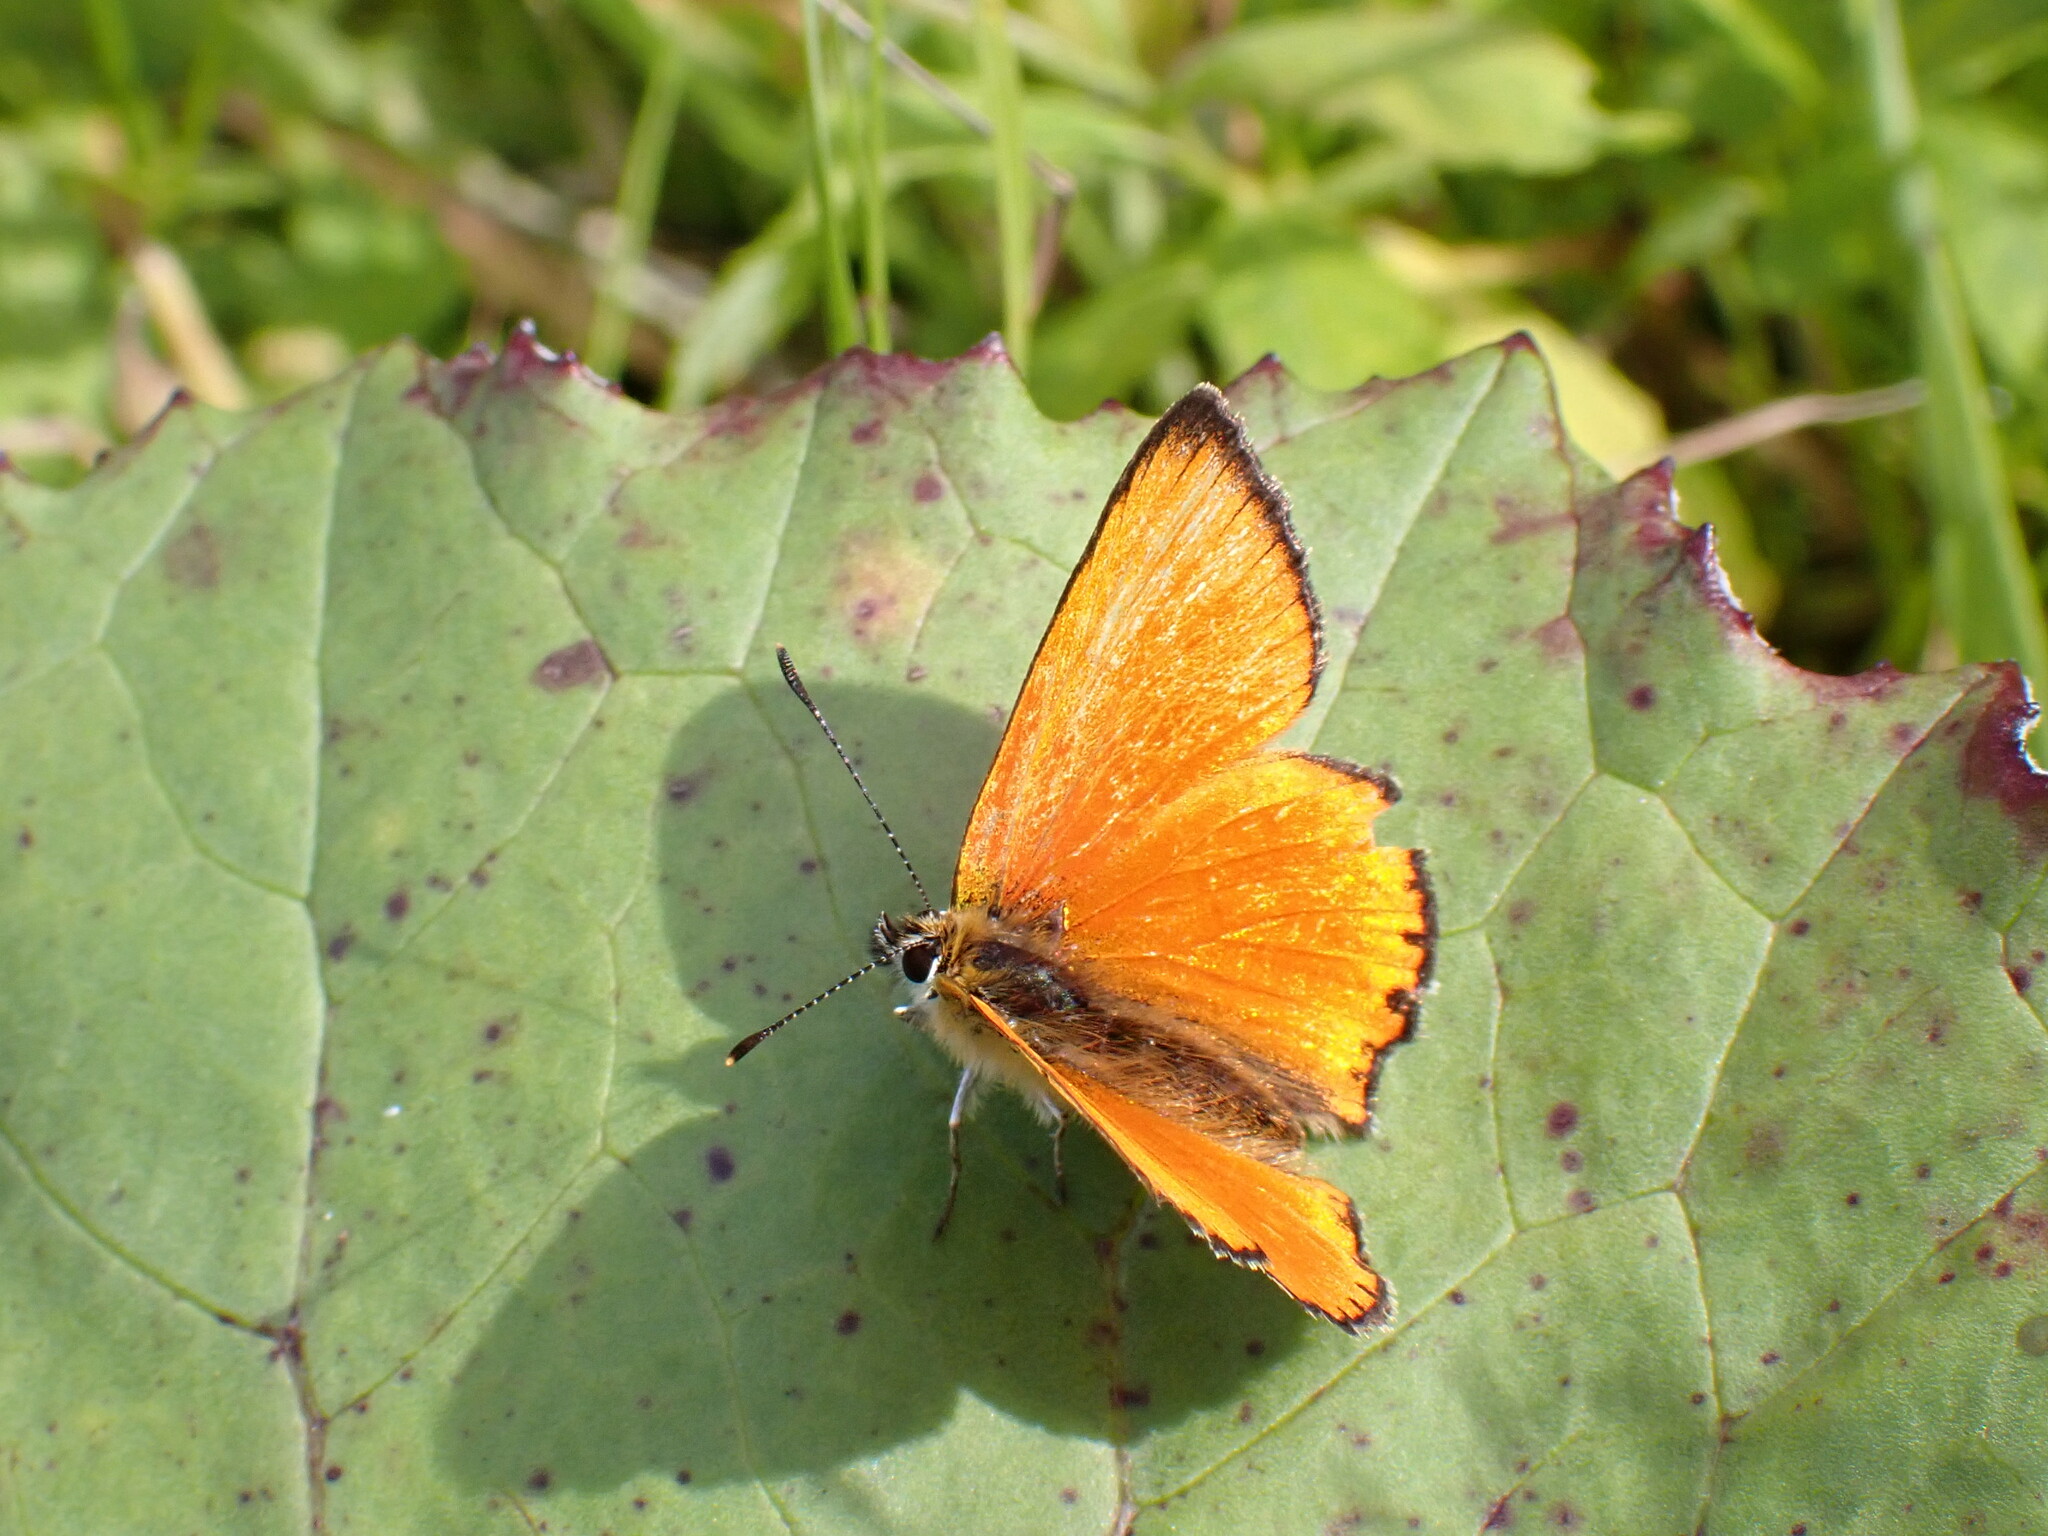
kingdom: Animalia
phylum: Arthropoda
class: Insecta
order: Lepidoptera
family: Lycaenidae
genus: Lycaena
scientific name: Lycaena virgaureae
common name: Scarce copper
